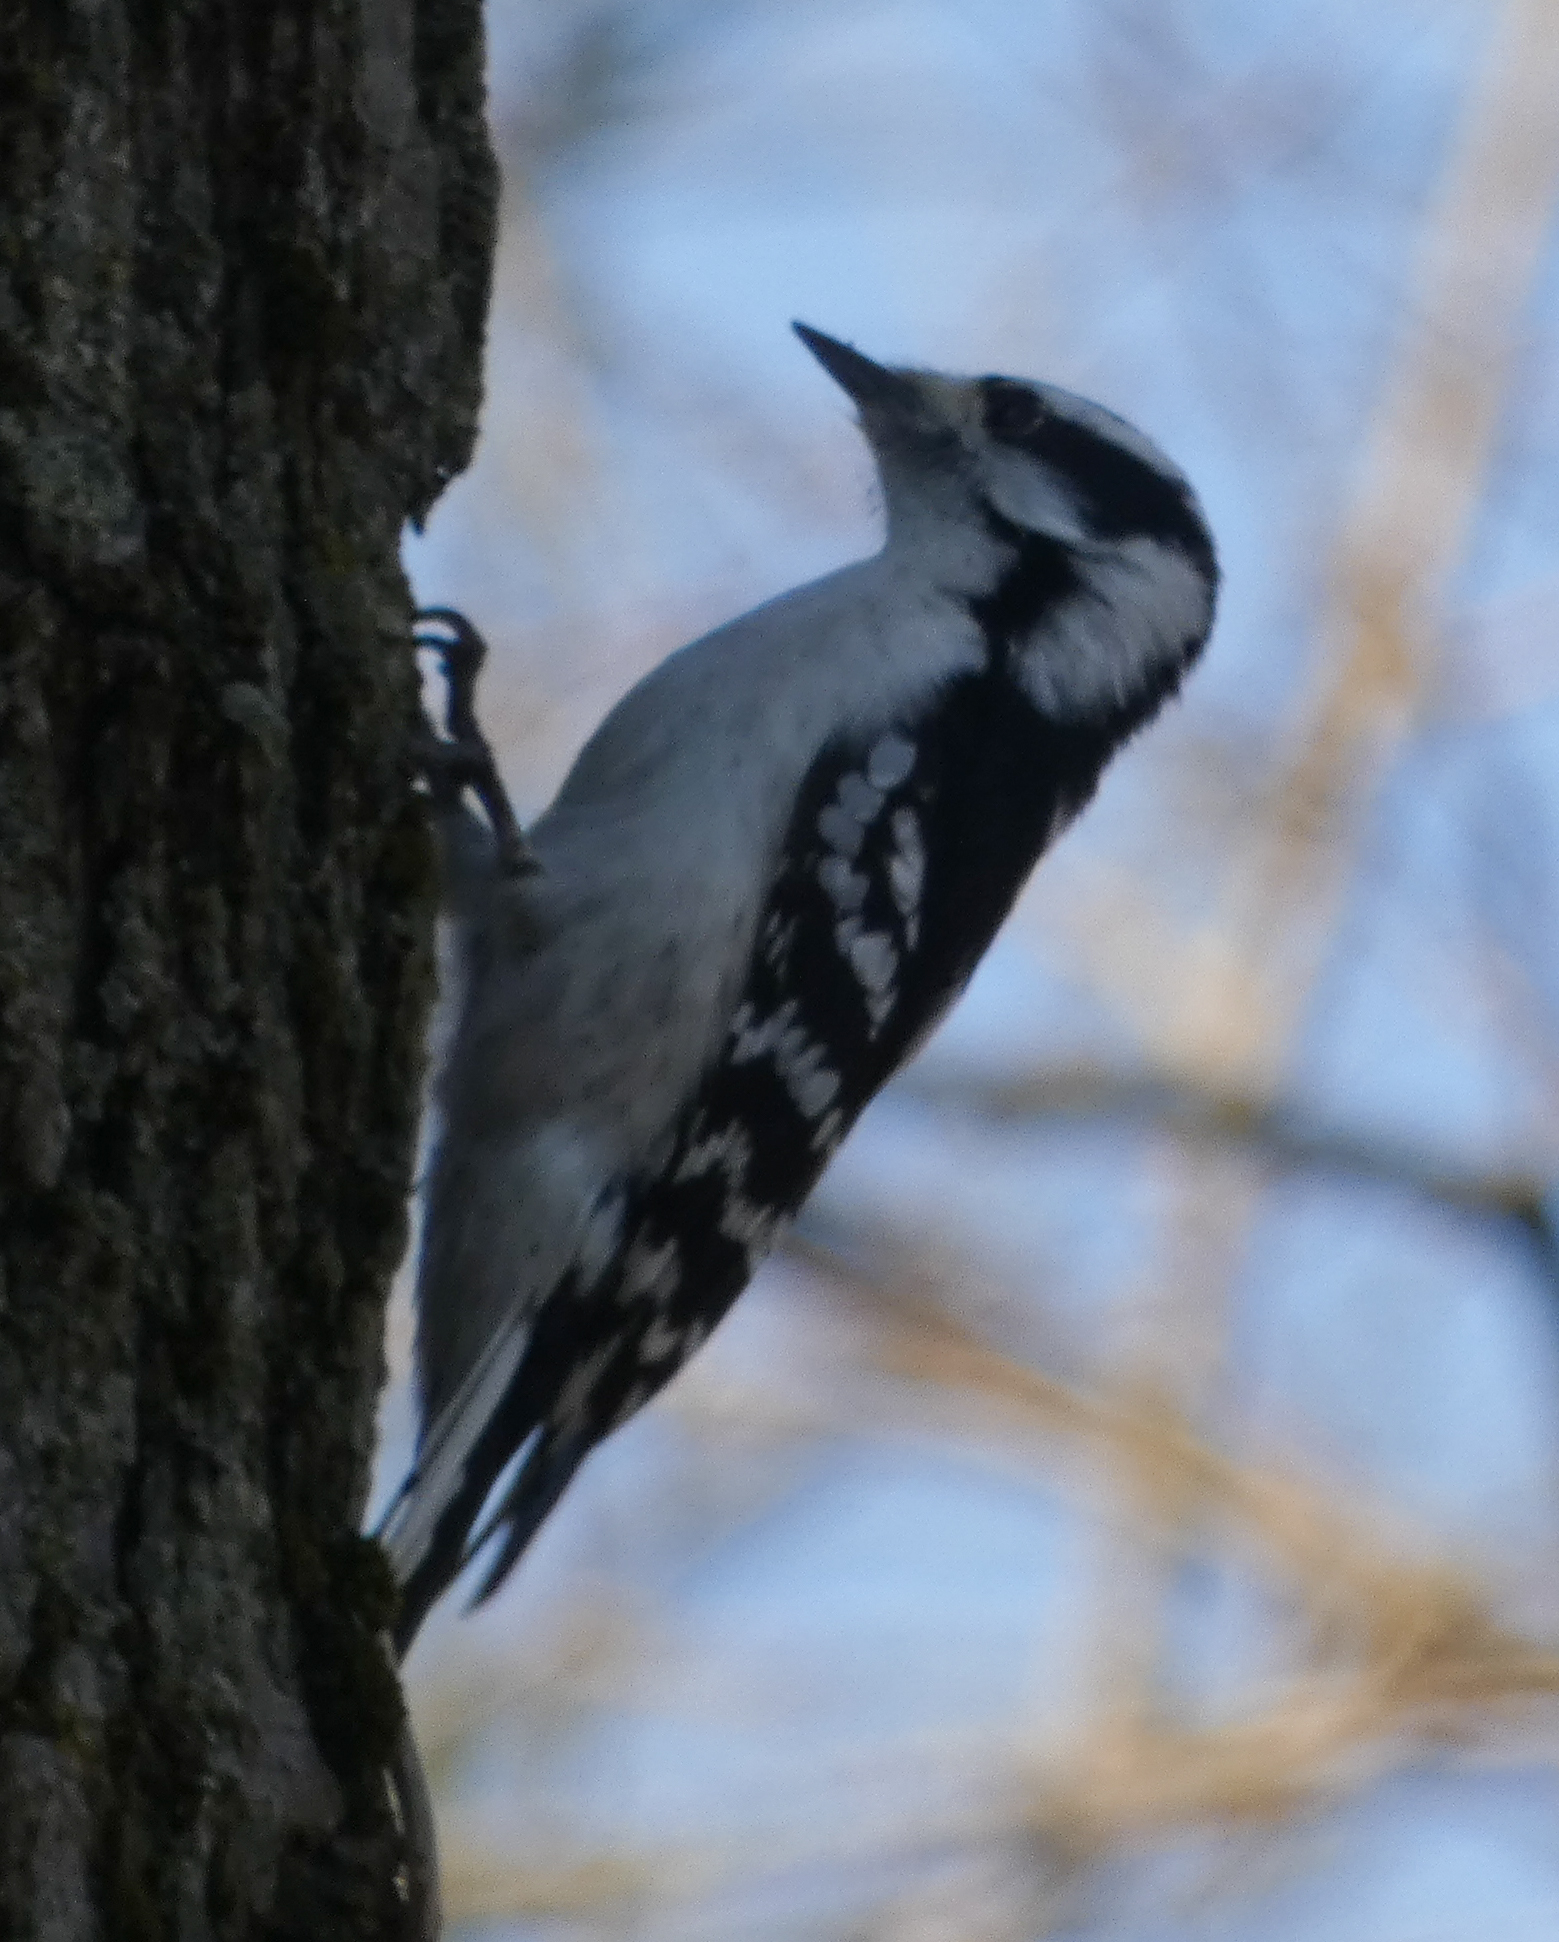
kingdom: Animalia
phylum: Chordata
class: Aves
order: Piciformes
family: Picidae
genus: Dryobates
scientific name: Dryobates pubescens
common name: Downy woodpecker
